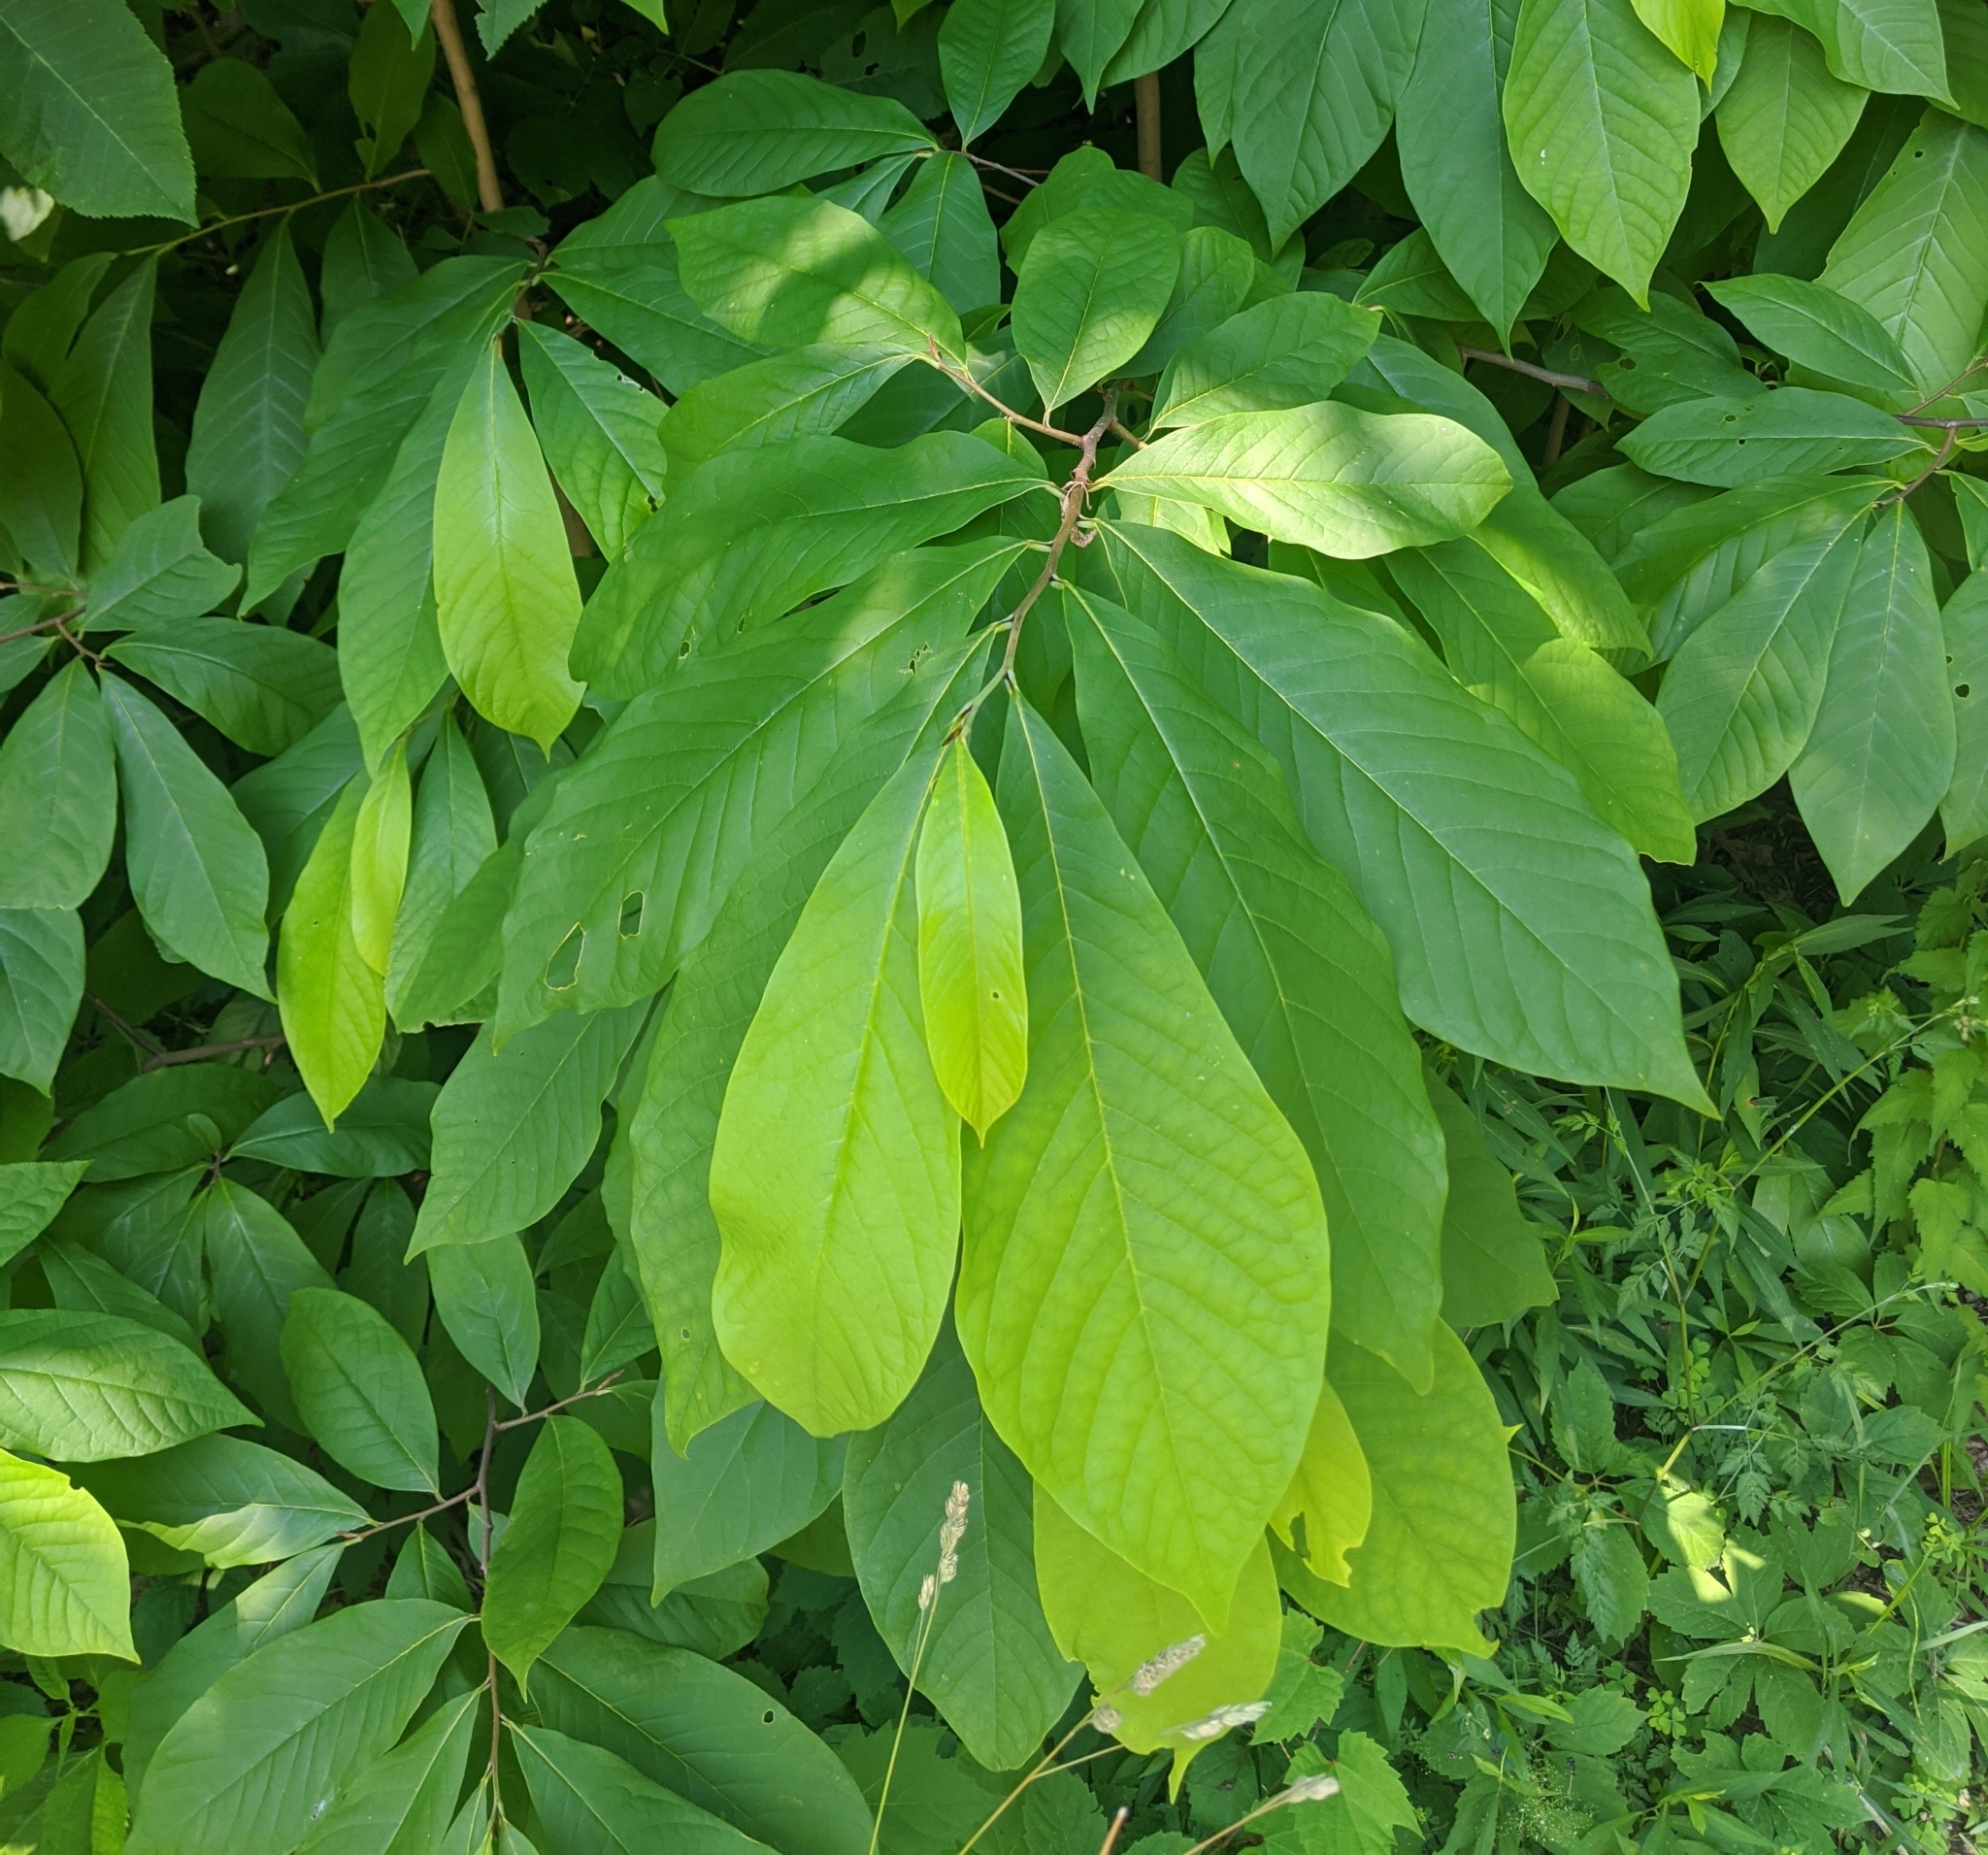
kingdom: Plantae
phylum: Tracheophyta
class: Magnoliopsida
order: Magnoliales
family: Annonaceae
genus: Asimina
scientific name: Asimina triloba
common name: Dog-banana
